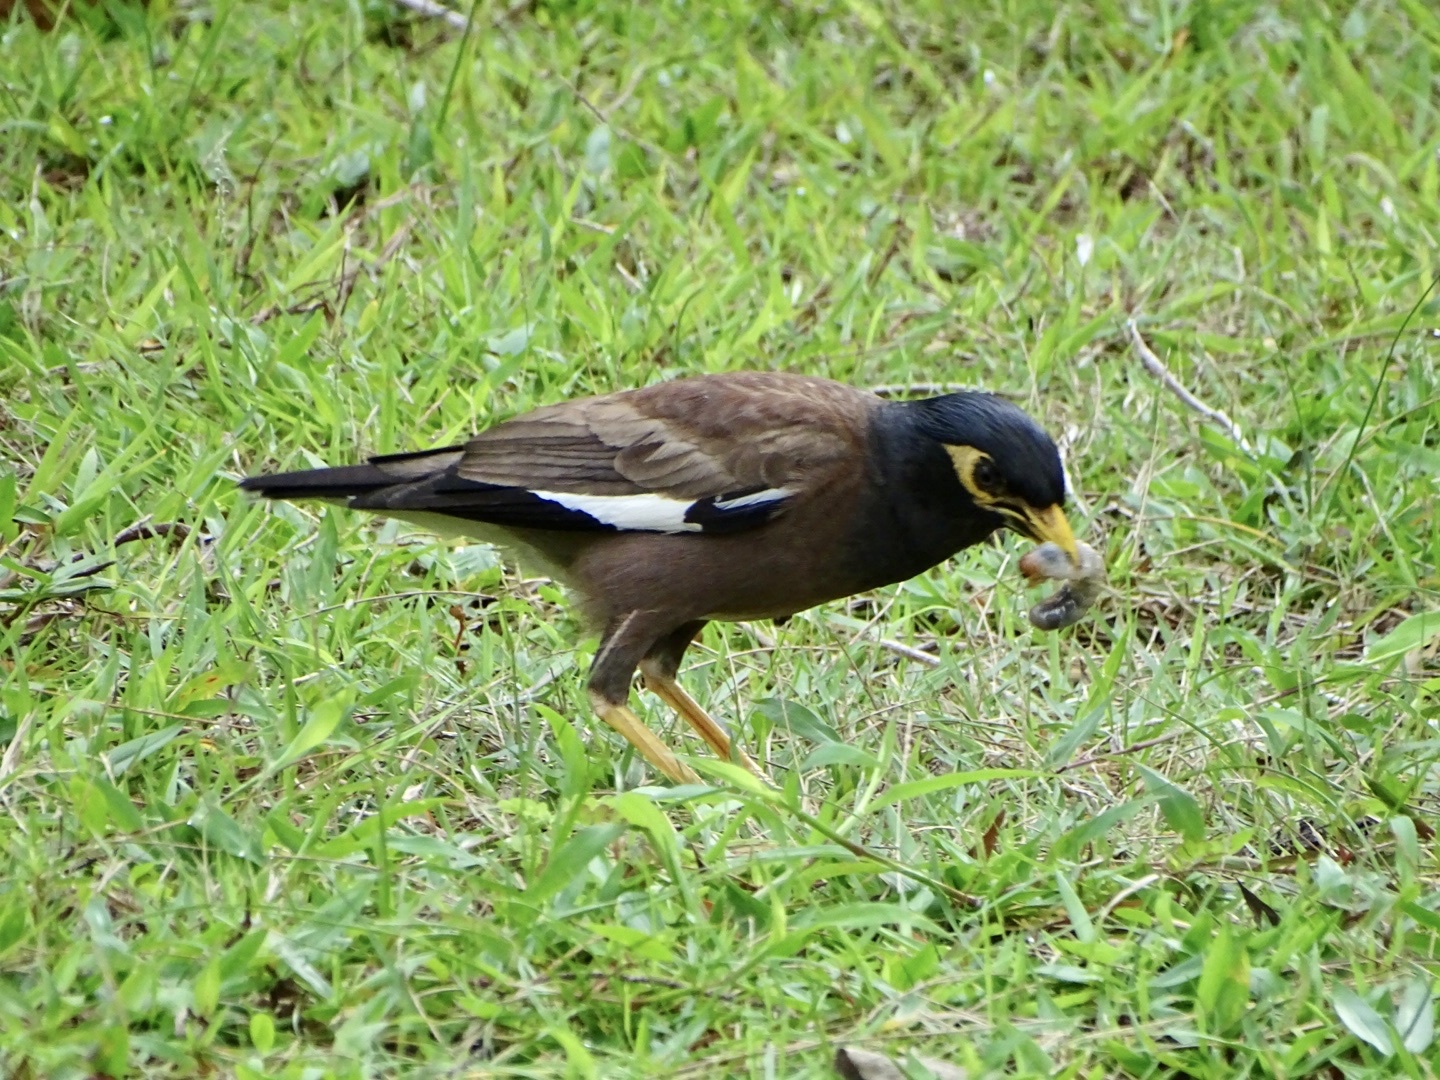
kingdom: Animalia
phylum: Chordata
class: Aves
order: Passeriformes
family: Sturnidae
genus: Acridotheres
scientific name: Acridotheres tristis
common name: Common myna
